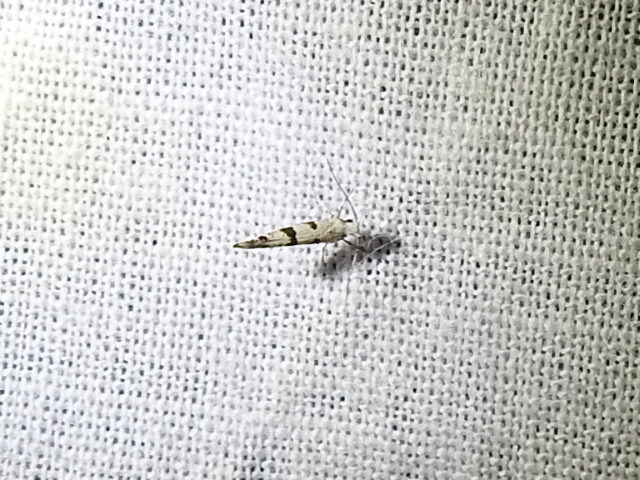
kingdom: Animalia
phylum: Arthropoda
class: Insecta
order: Lepidoptera
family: Argyresthiidae
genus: Argyresthia
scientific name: Argyresthia austerella
